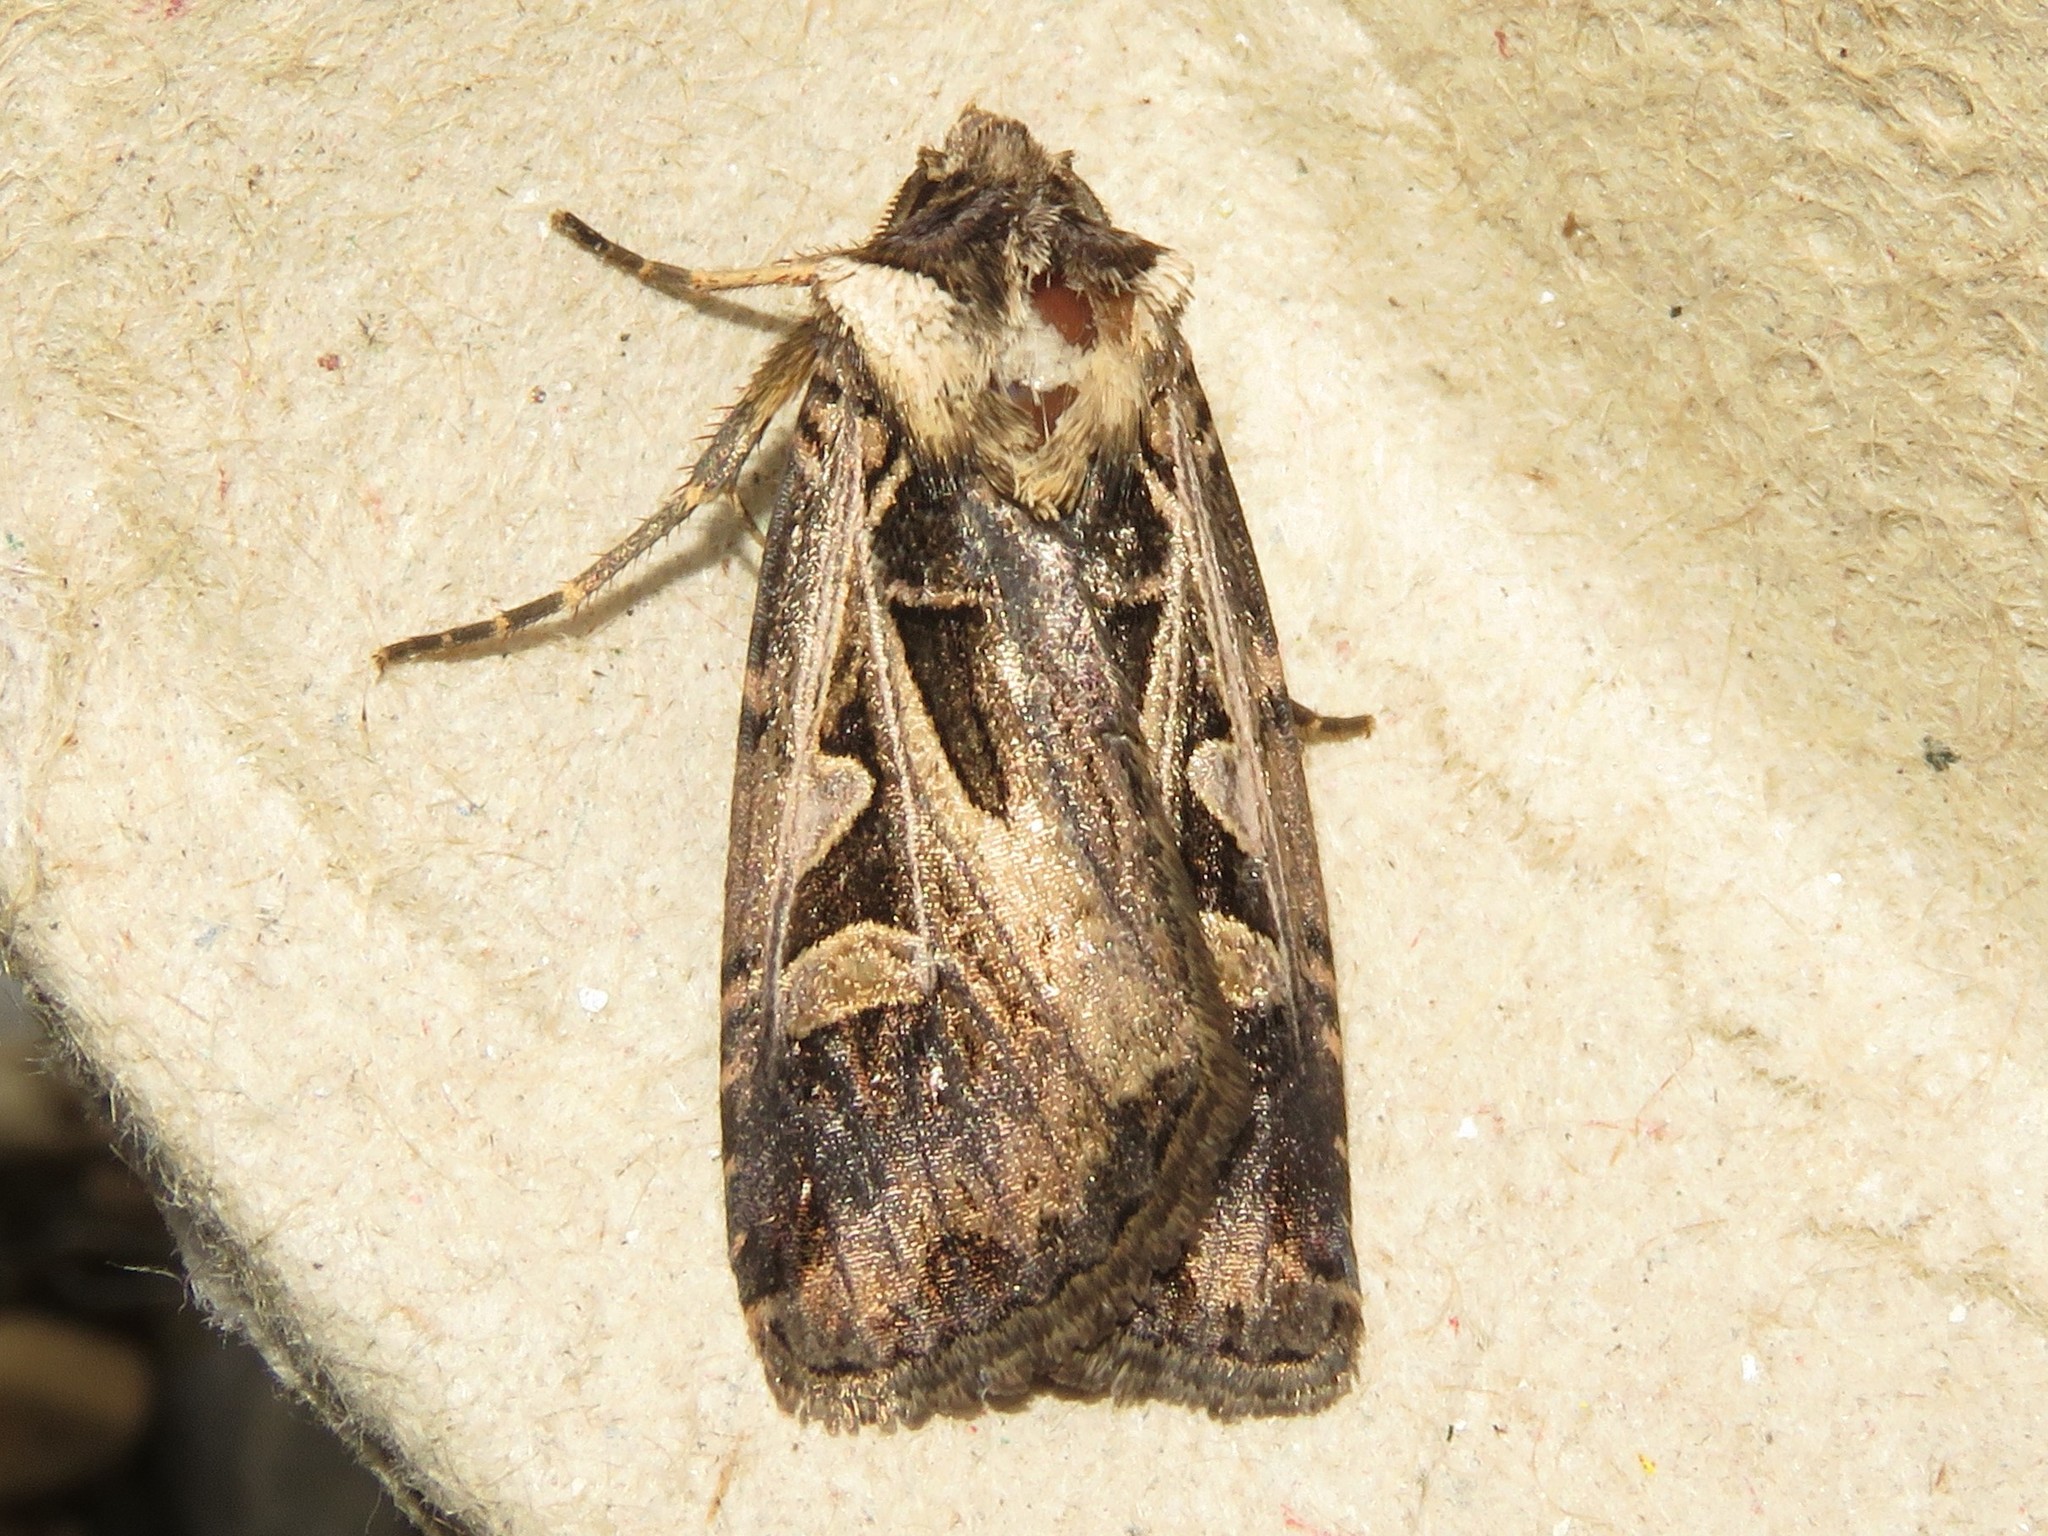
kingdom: Animalia
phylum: Arthropoda
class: Insecta
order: Lepidoptera
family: Noctuidae
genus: Feltia
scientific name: Feltia
